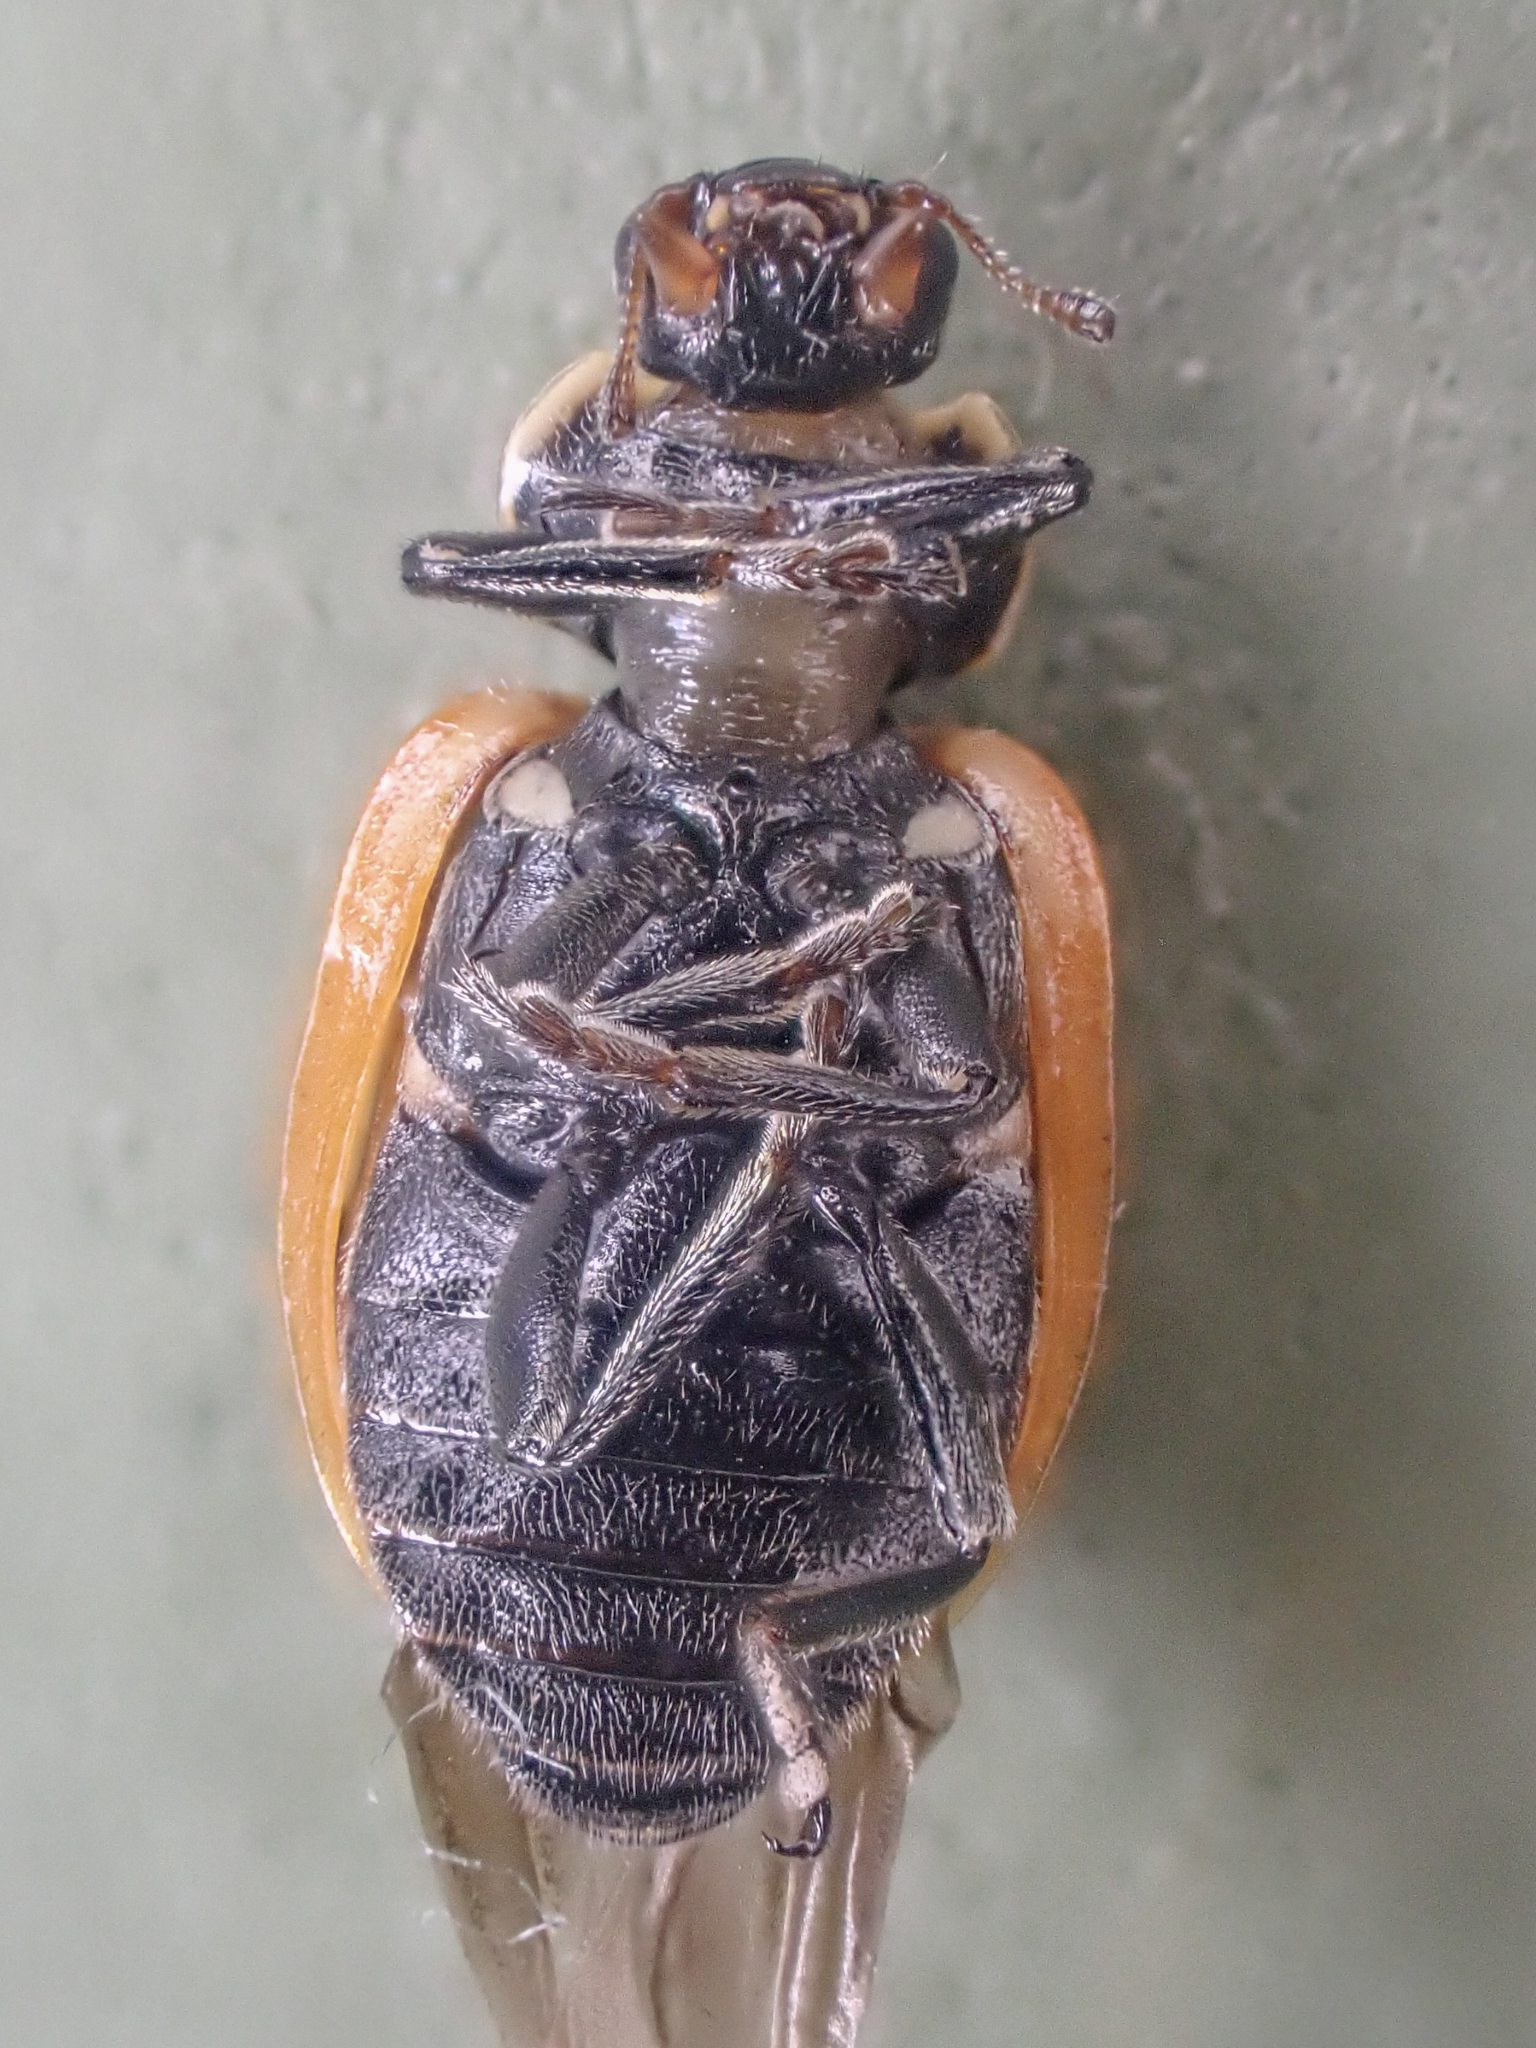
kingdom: Animalia
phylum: Arthropoda
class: Insecta
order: Coleoptera
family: Coccinellidae
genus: Hippodamia
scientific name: Hippodamia oregonensis
